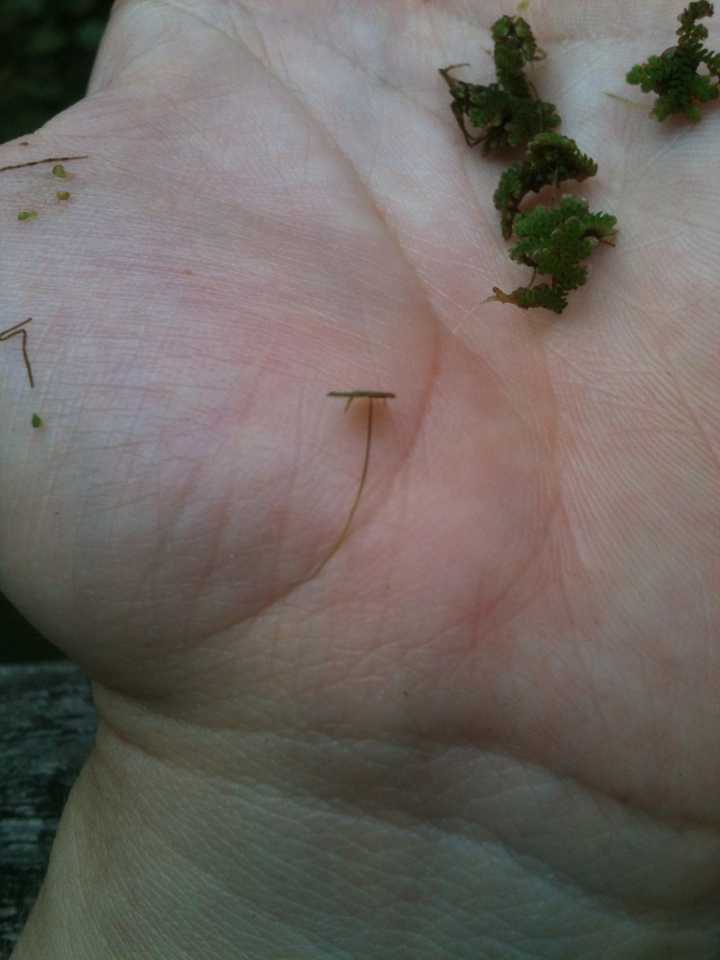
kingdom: Plantae
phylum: Tracheophyta
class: Liliopsida
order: Alismatales
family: Araceae
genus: Lemna
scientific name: Lemna minor
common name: Common duckweed
